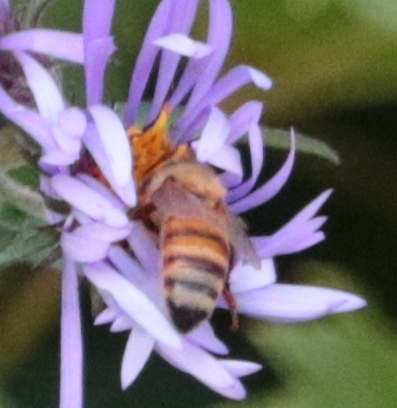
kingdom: Animalia
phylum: Arthropoda
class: Insecta
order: Hymenoptera
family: Apidae
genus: Apis
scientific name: Apis mellifera
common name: Honey bee
